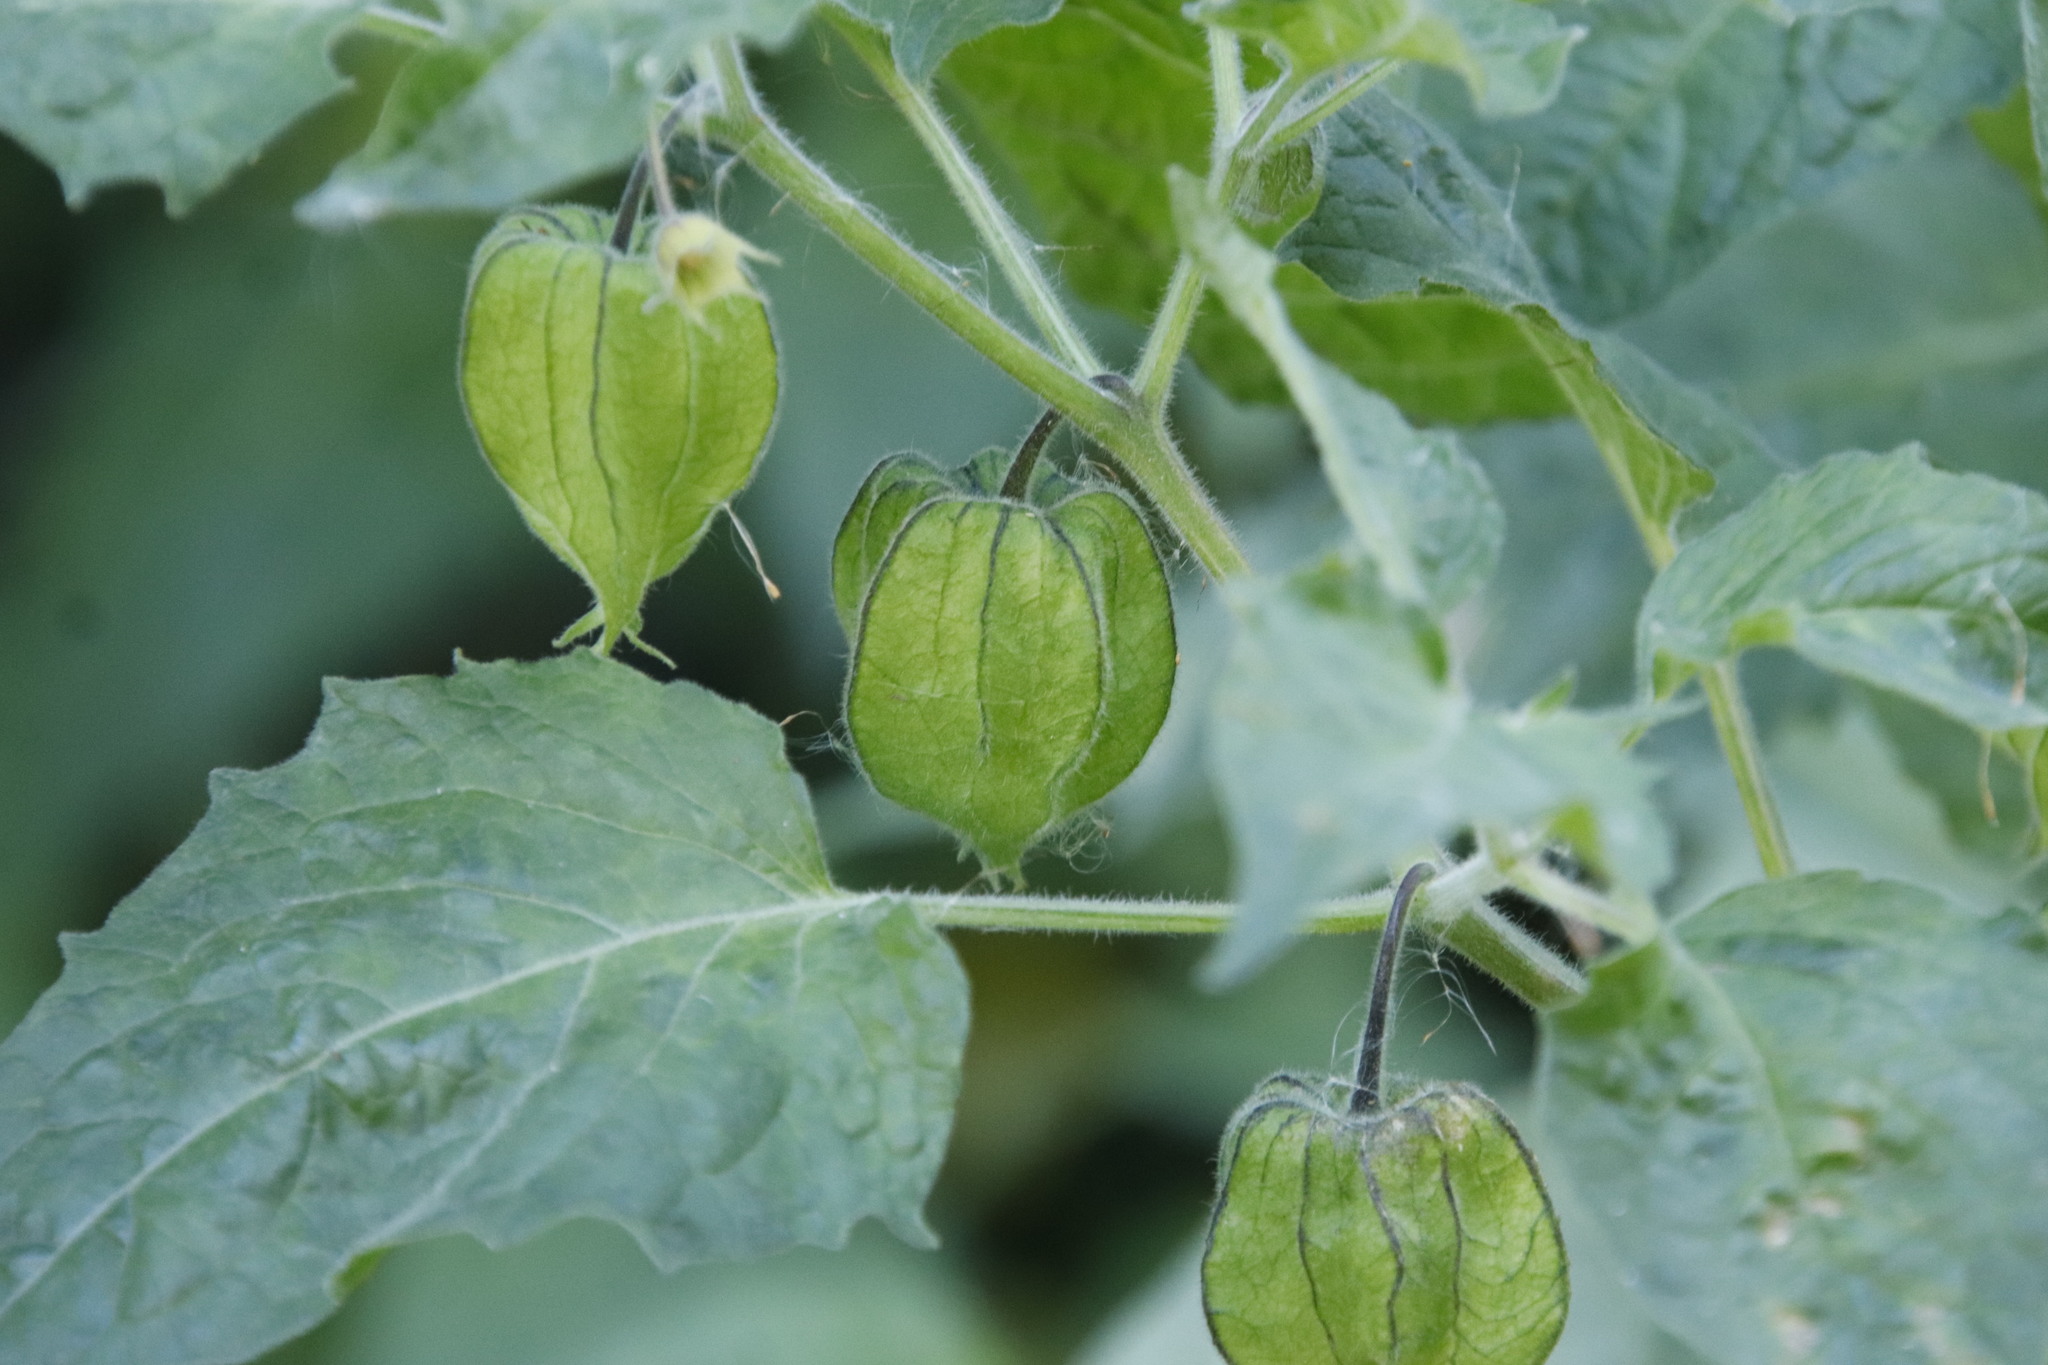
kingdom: Plantae
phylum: Tracheophyta
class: Magnoliopsida
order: Solanales
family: Solanaceae
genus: Physalis
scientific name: Physalis peruviana
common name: Cape-gooseberry
